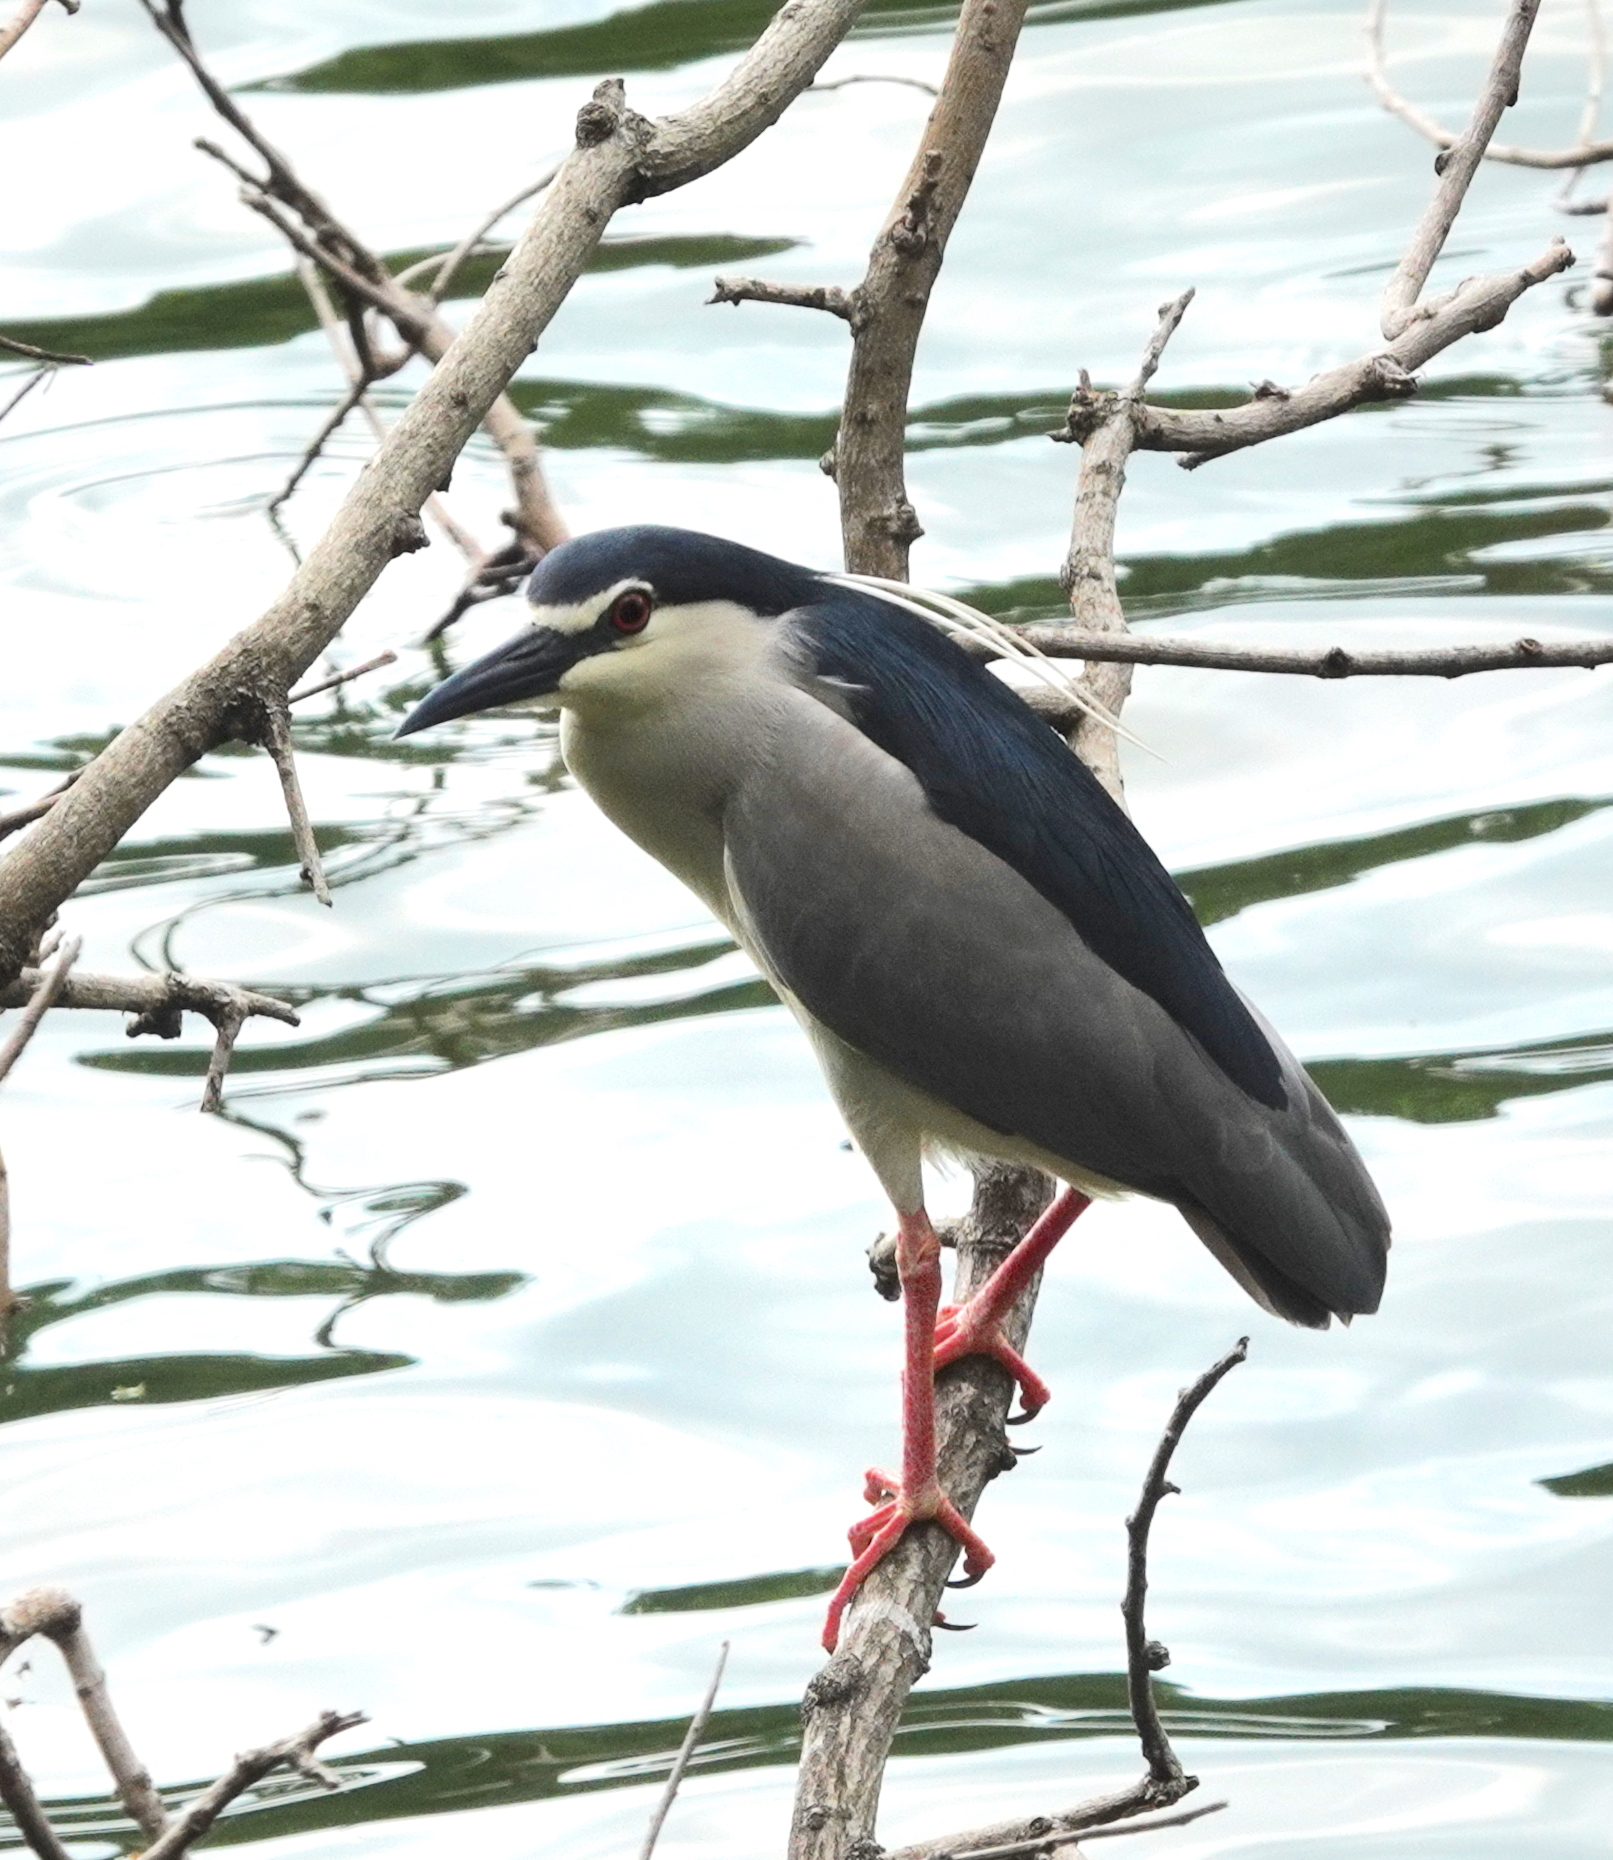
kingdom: Animalia
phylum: Chordata
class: Aves
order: Pelecaniformes
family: Ardeidae
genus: Nycticorax
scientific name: Nycticorax nycticorax
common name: Black-crowned night heron
